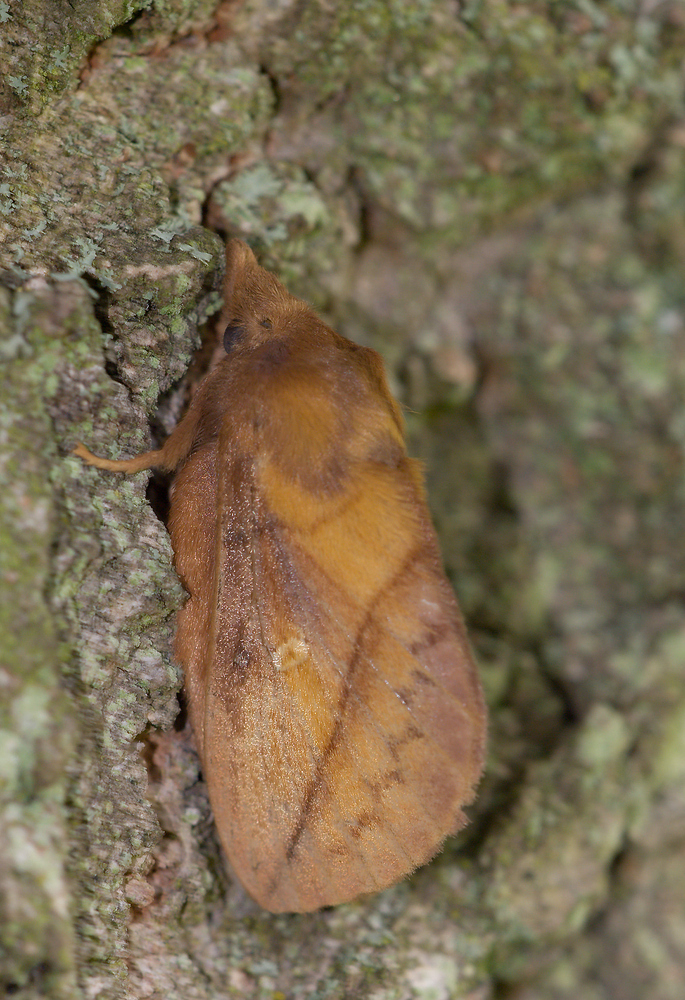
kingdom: Animalia
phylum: Arthropoda
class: Insecta
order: Lepidoptera
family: Lasiocampidae
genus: Euthrix
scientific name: Euthrix potatoria
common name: Drinker
